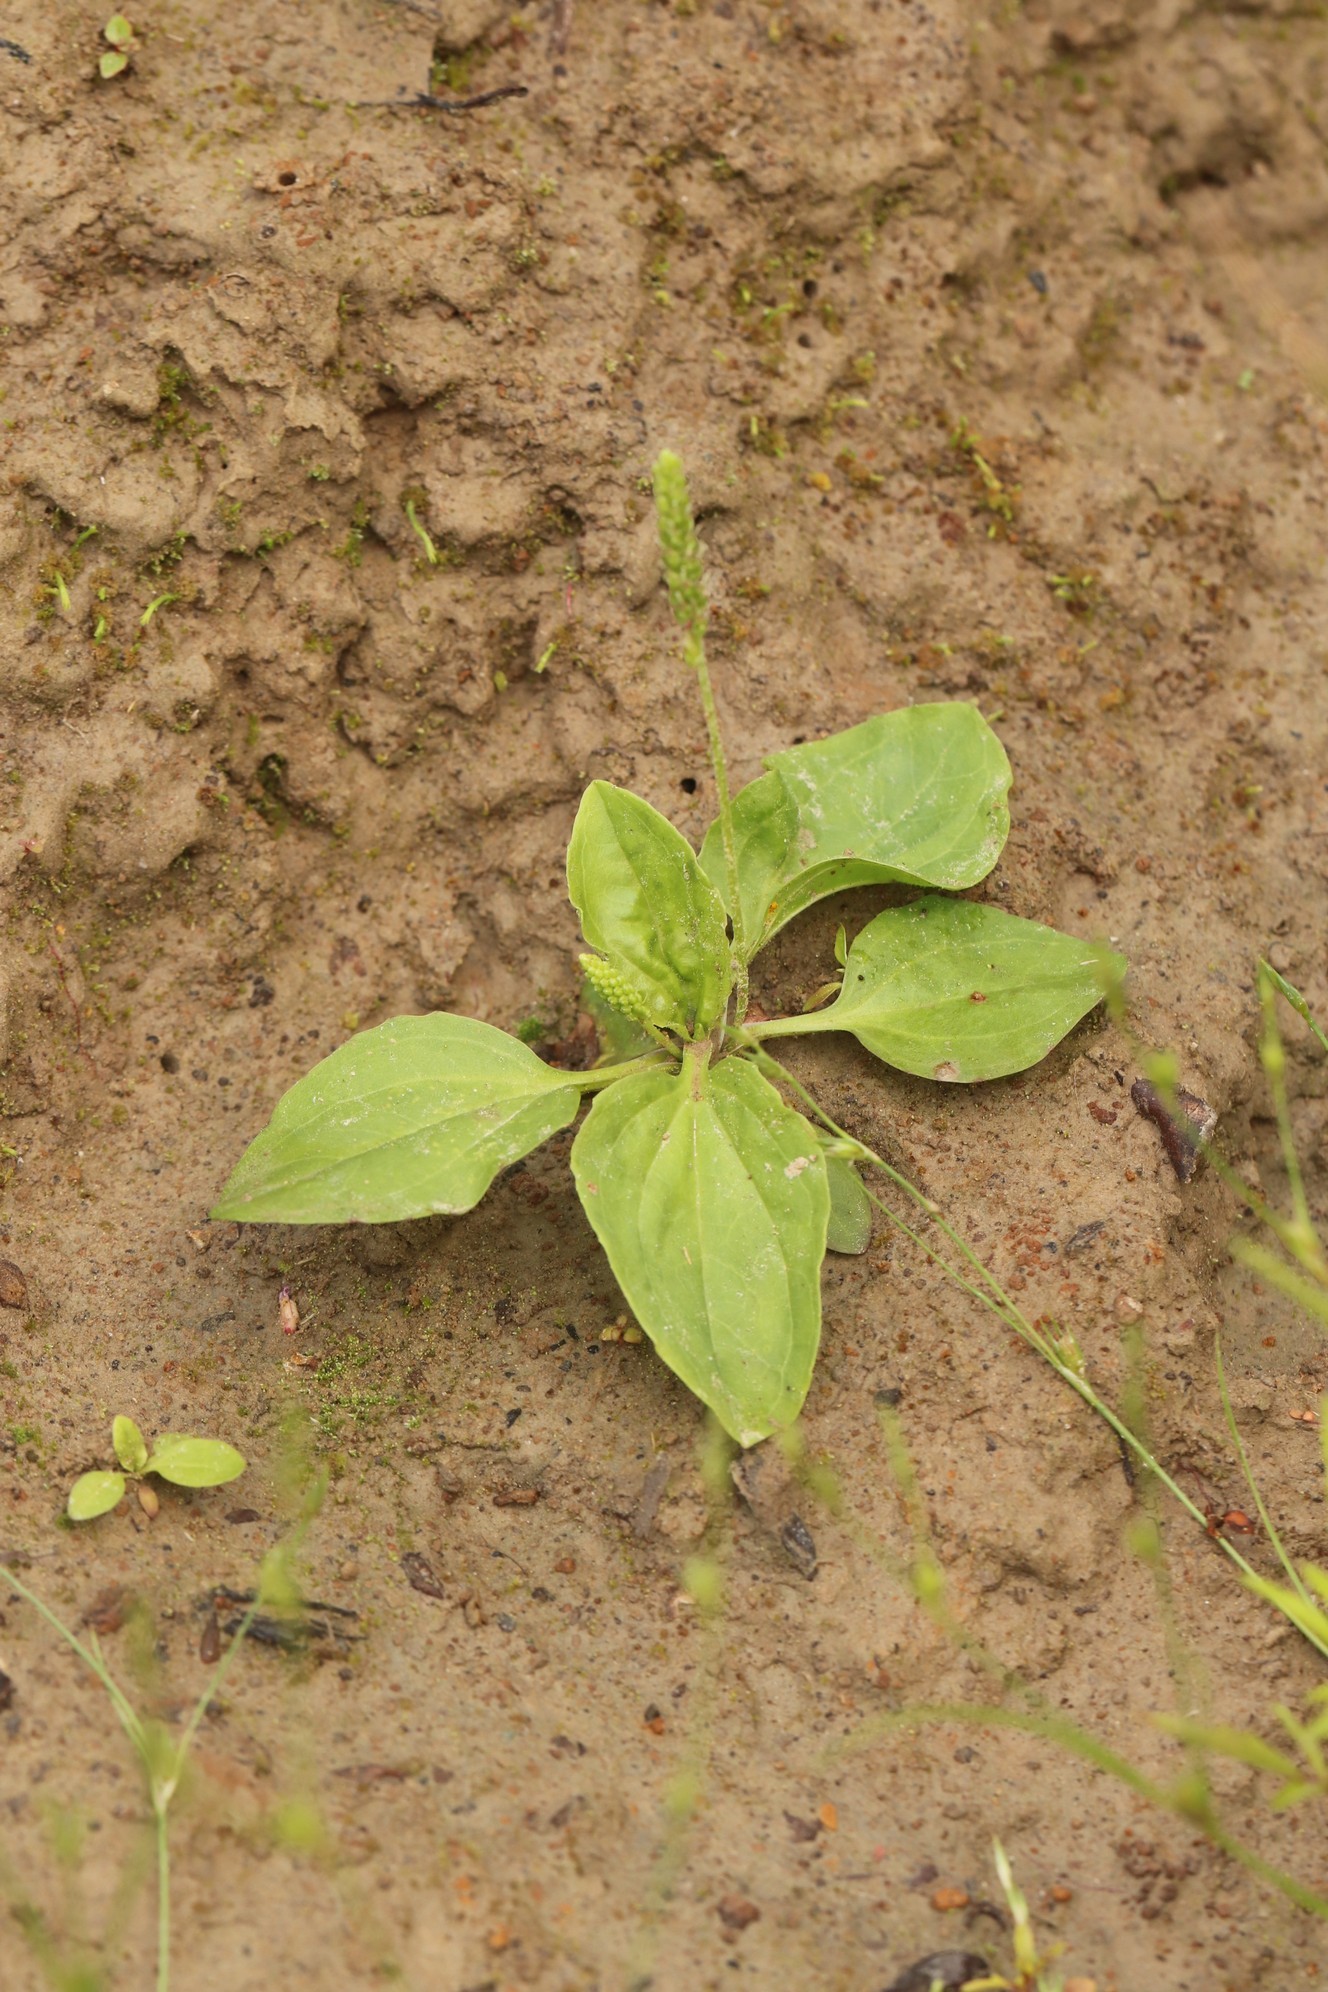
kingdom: Plantae
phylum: Tracheophyta
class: Magnoliopsida
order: Lamiales
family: Plantaginaceae
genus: Plantago
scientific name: Plantago major
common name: Common plantain
